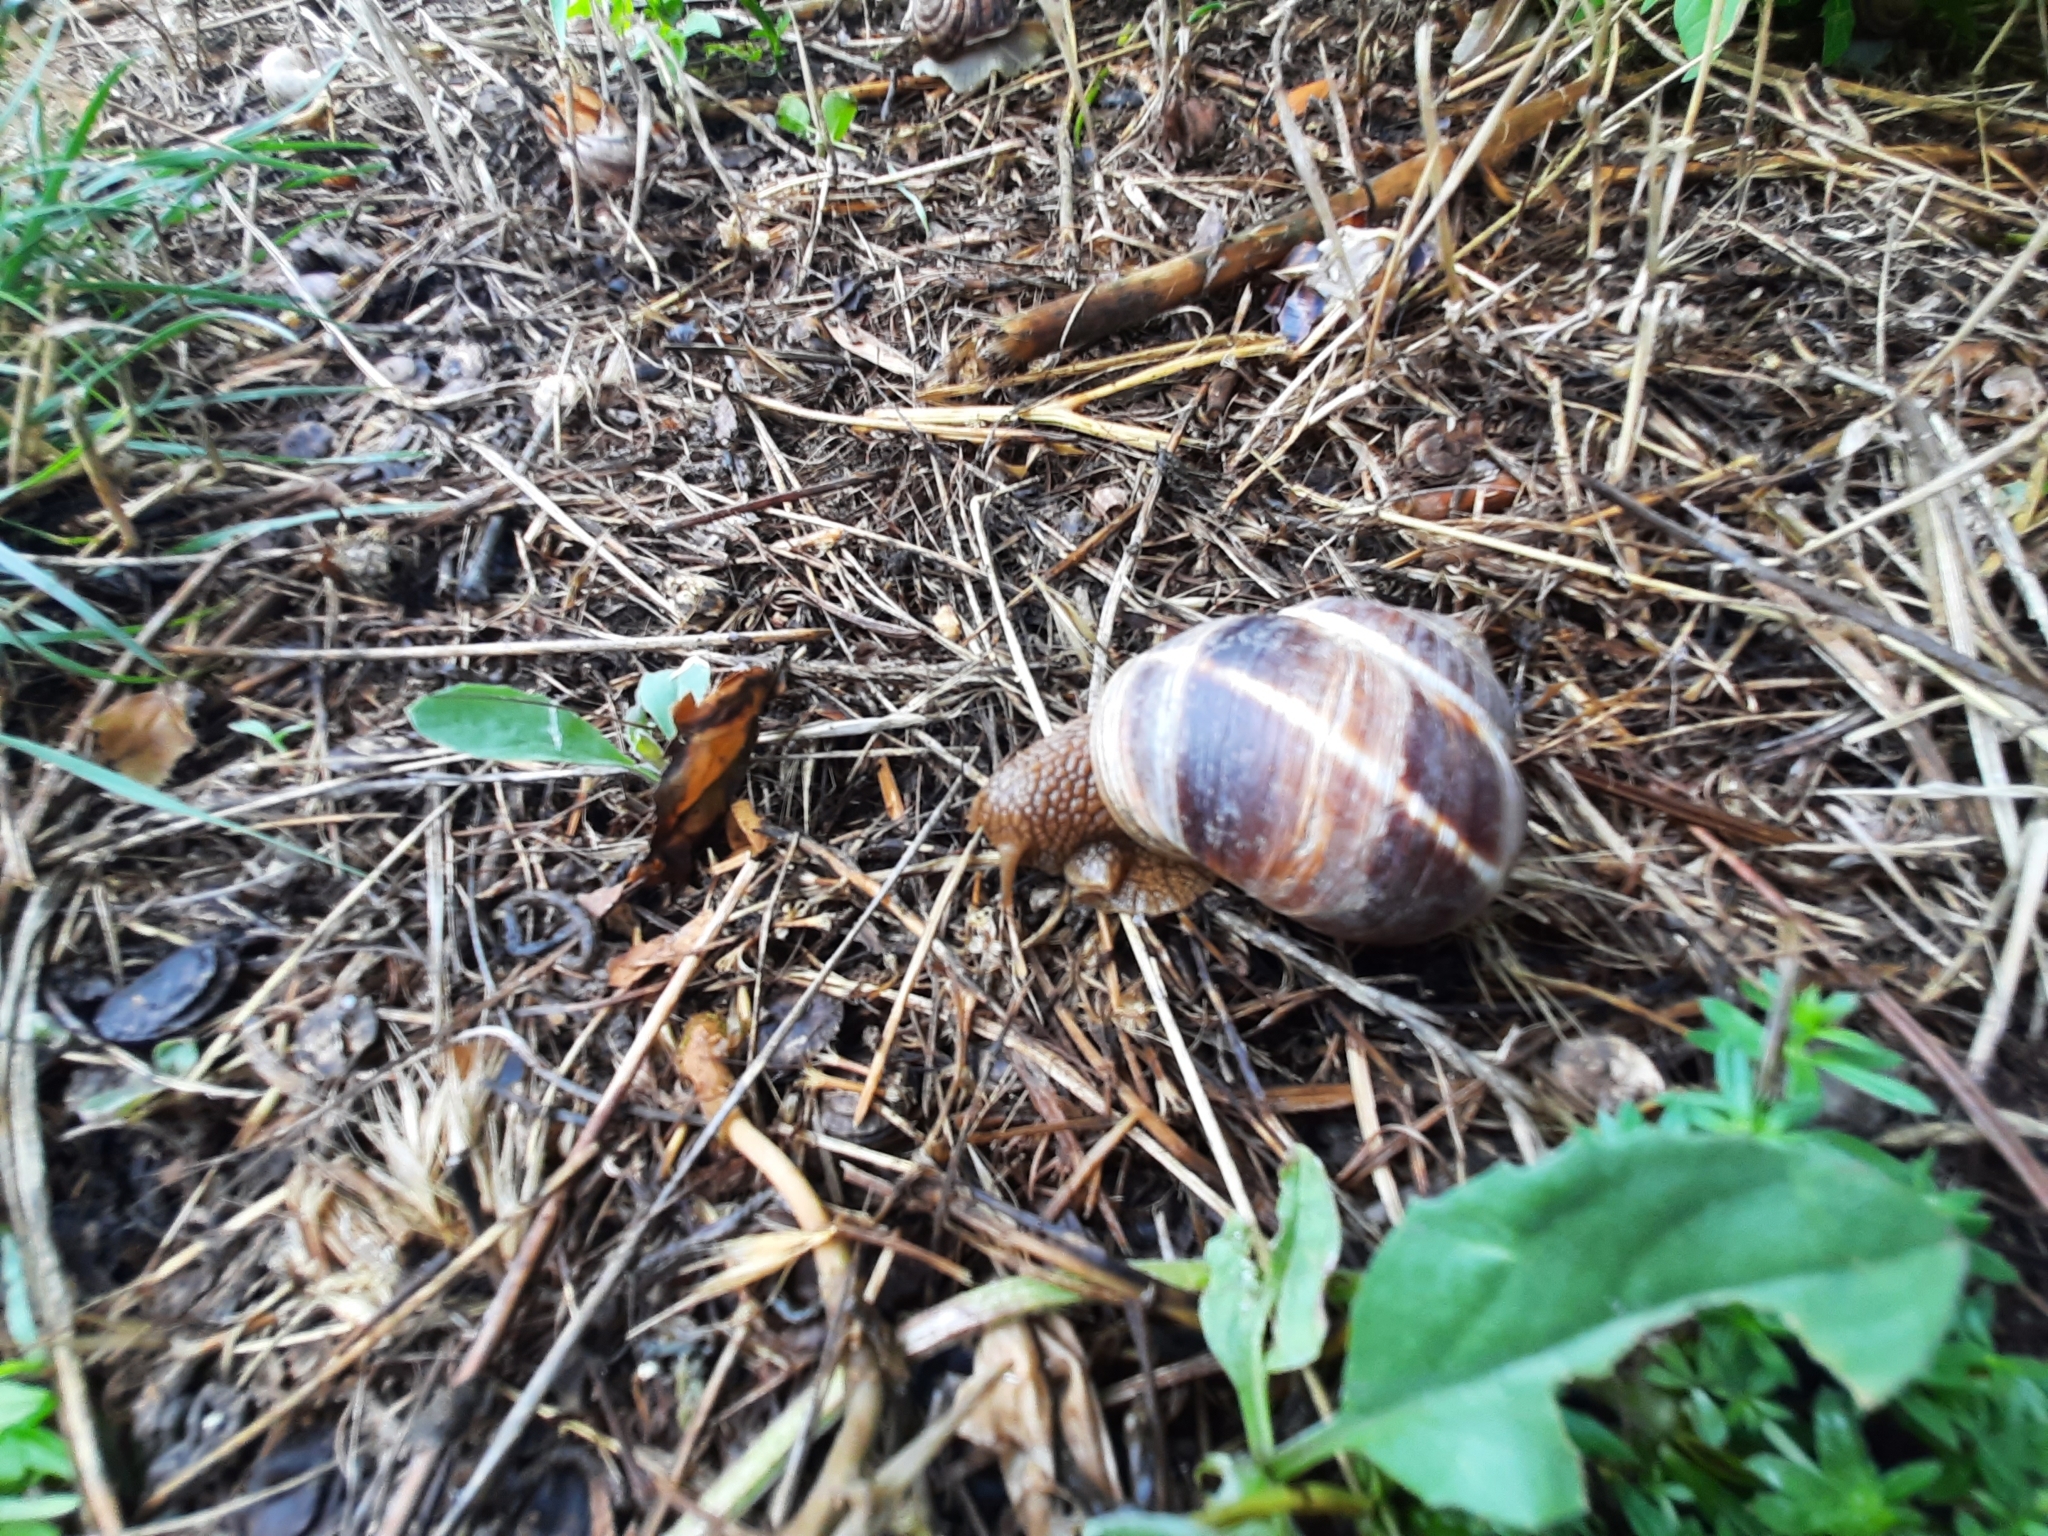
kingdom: Animalia
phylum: Mollusca
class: Gastropoda
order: Stylommatophora
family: Helicidae
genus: Helix
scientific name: Helix lucorum
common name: Turkish snail
